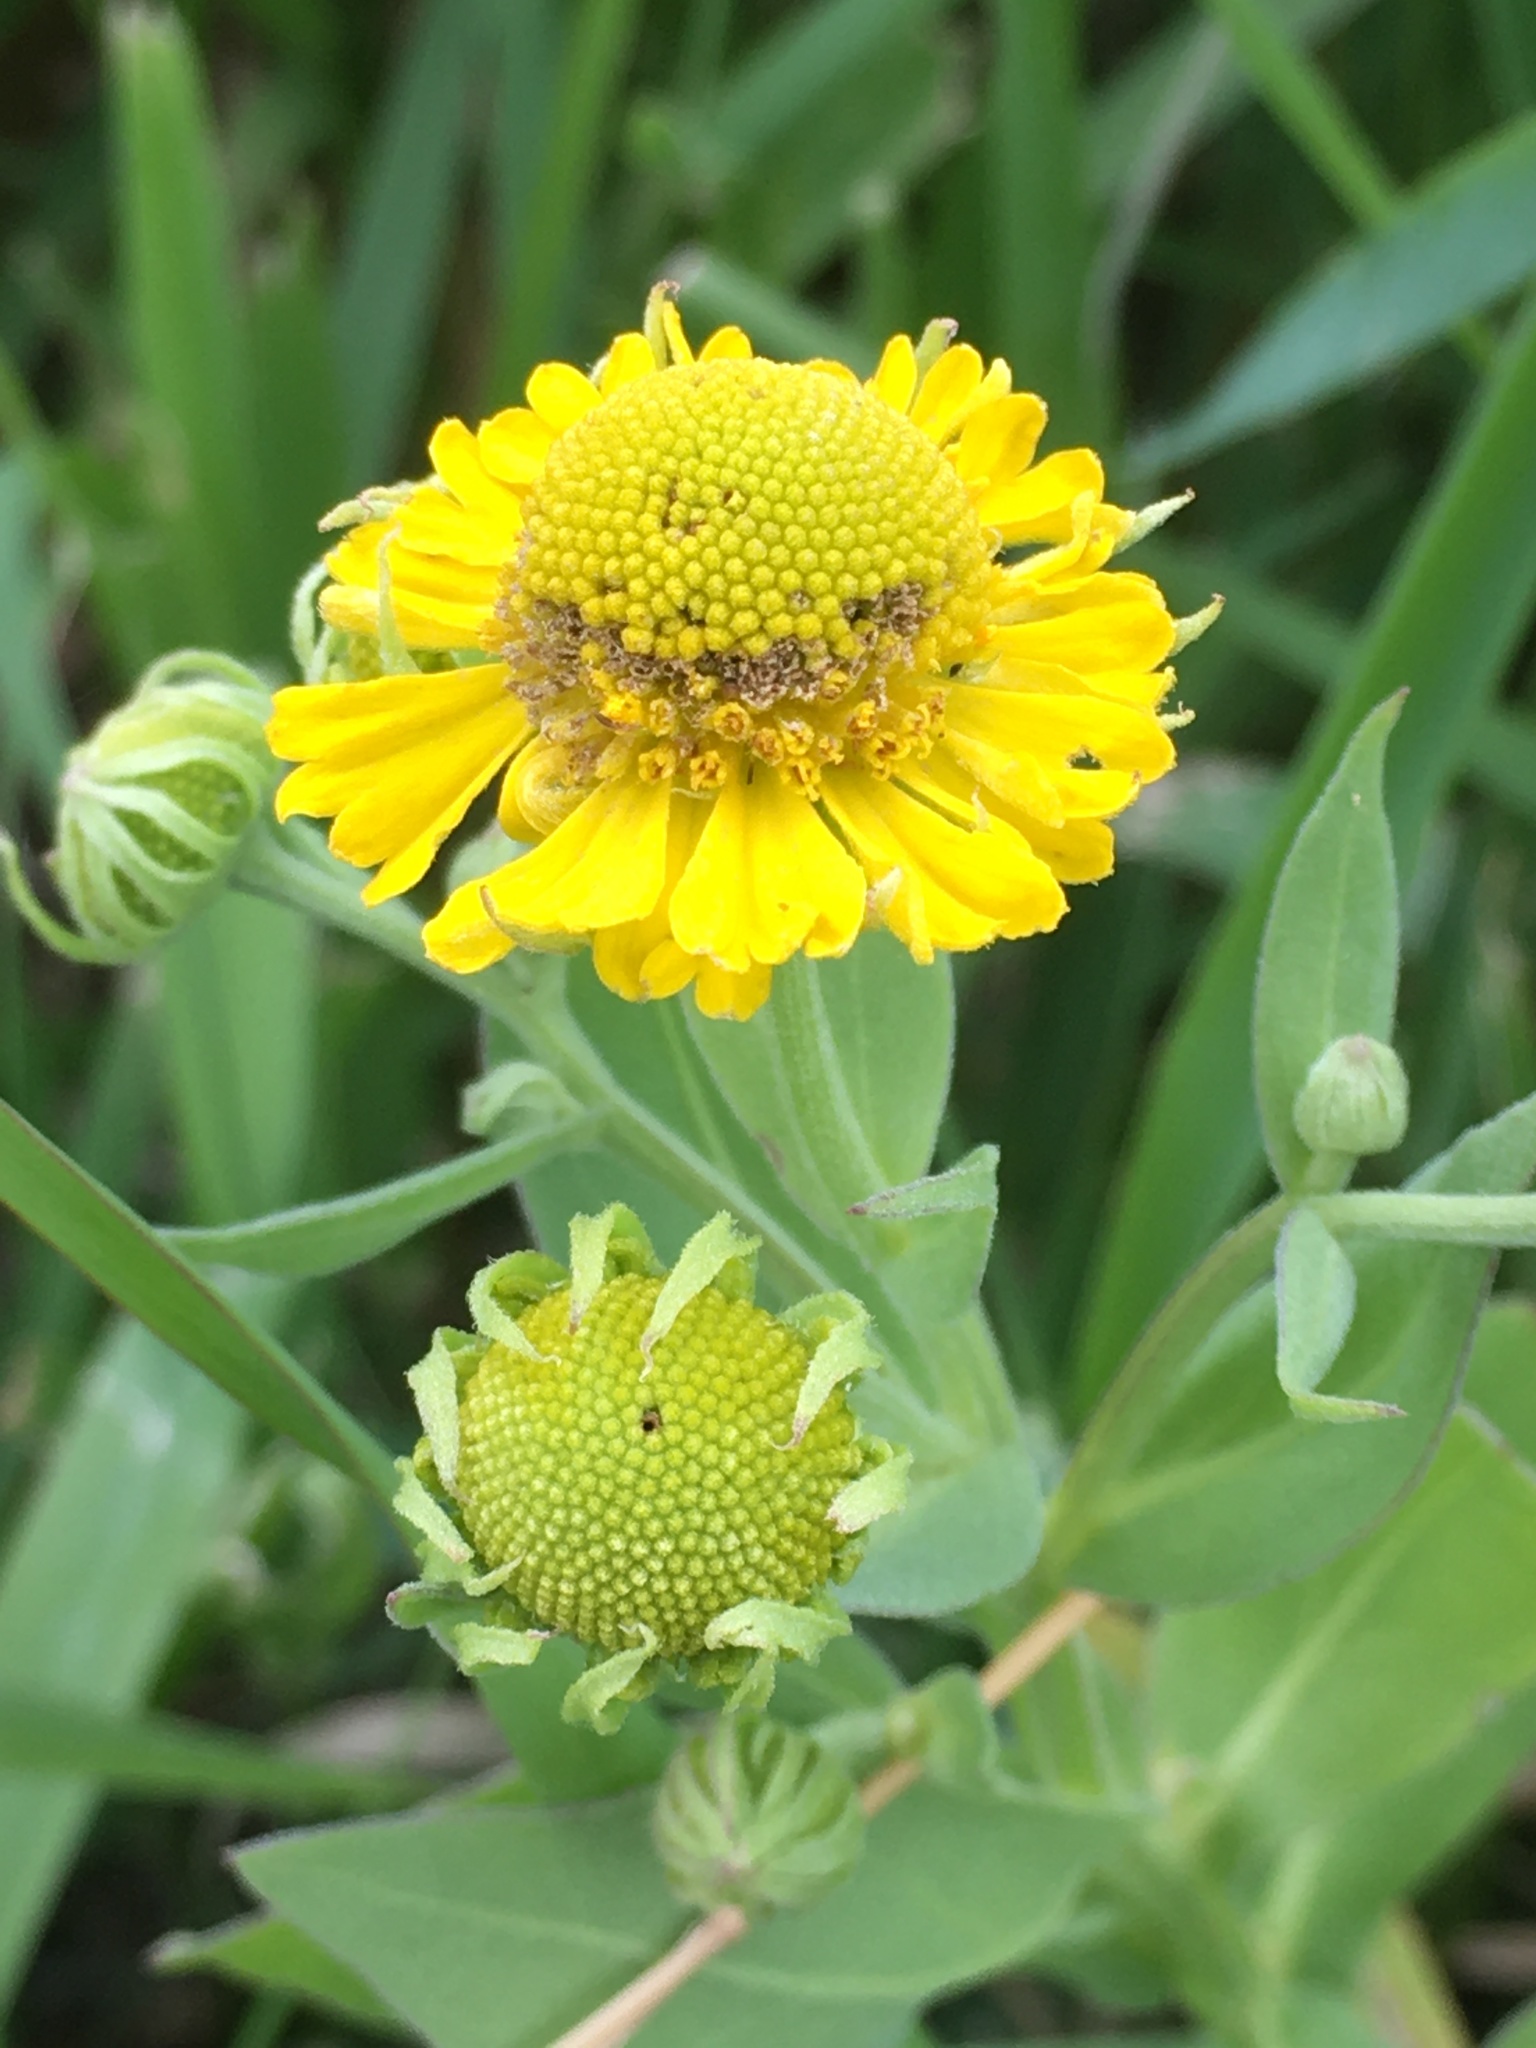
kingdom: Plantae
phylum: Tracheophyta
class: Magnoliopsida
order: Asterales
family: Asteraceae
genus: Helenium
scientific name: Helenium autumnale
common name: Sneezeweed
